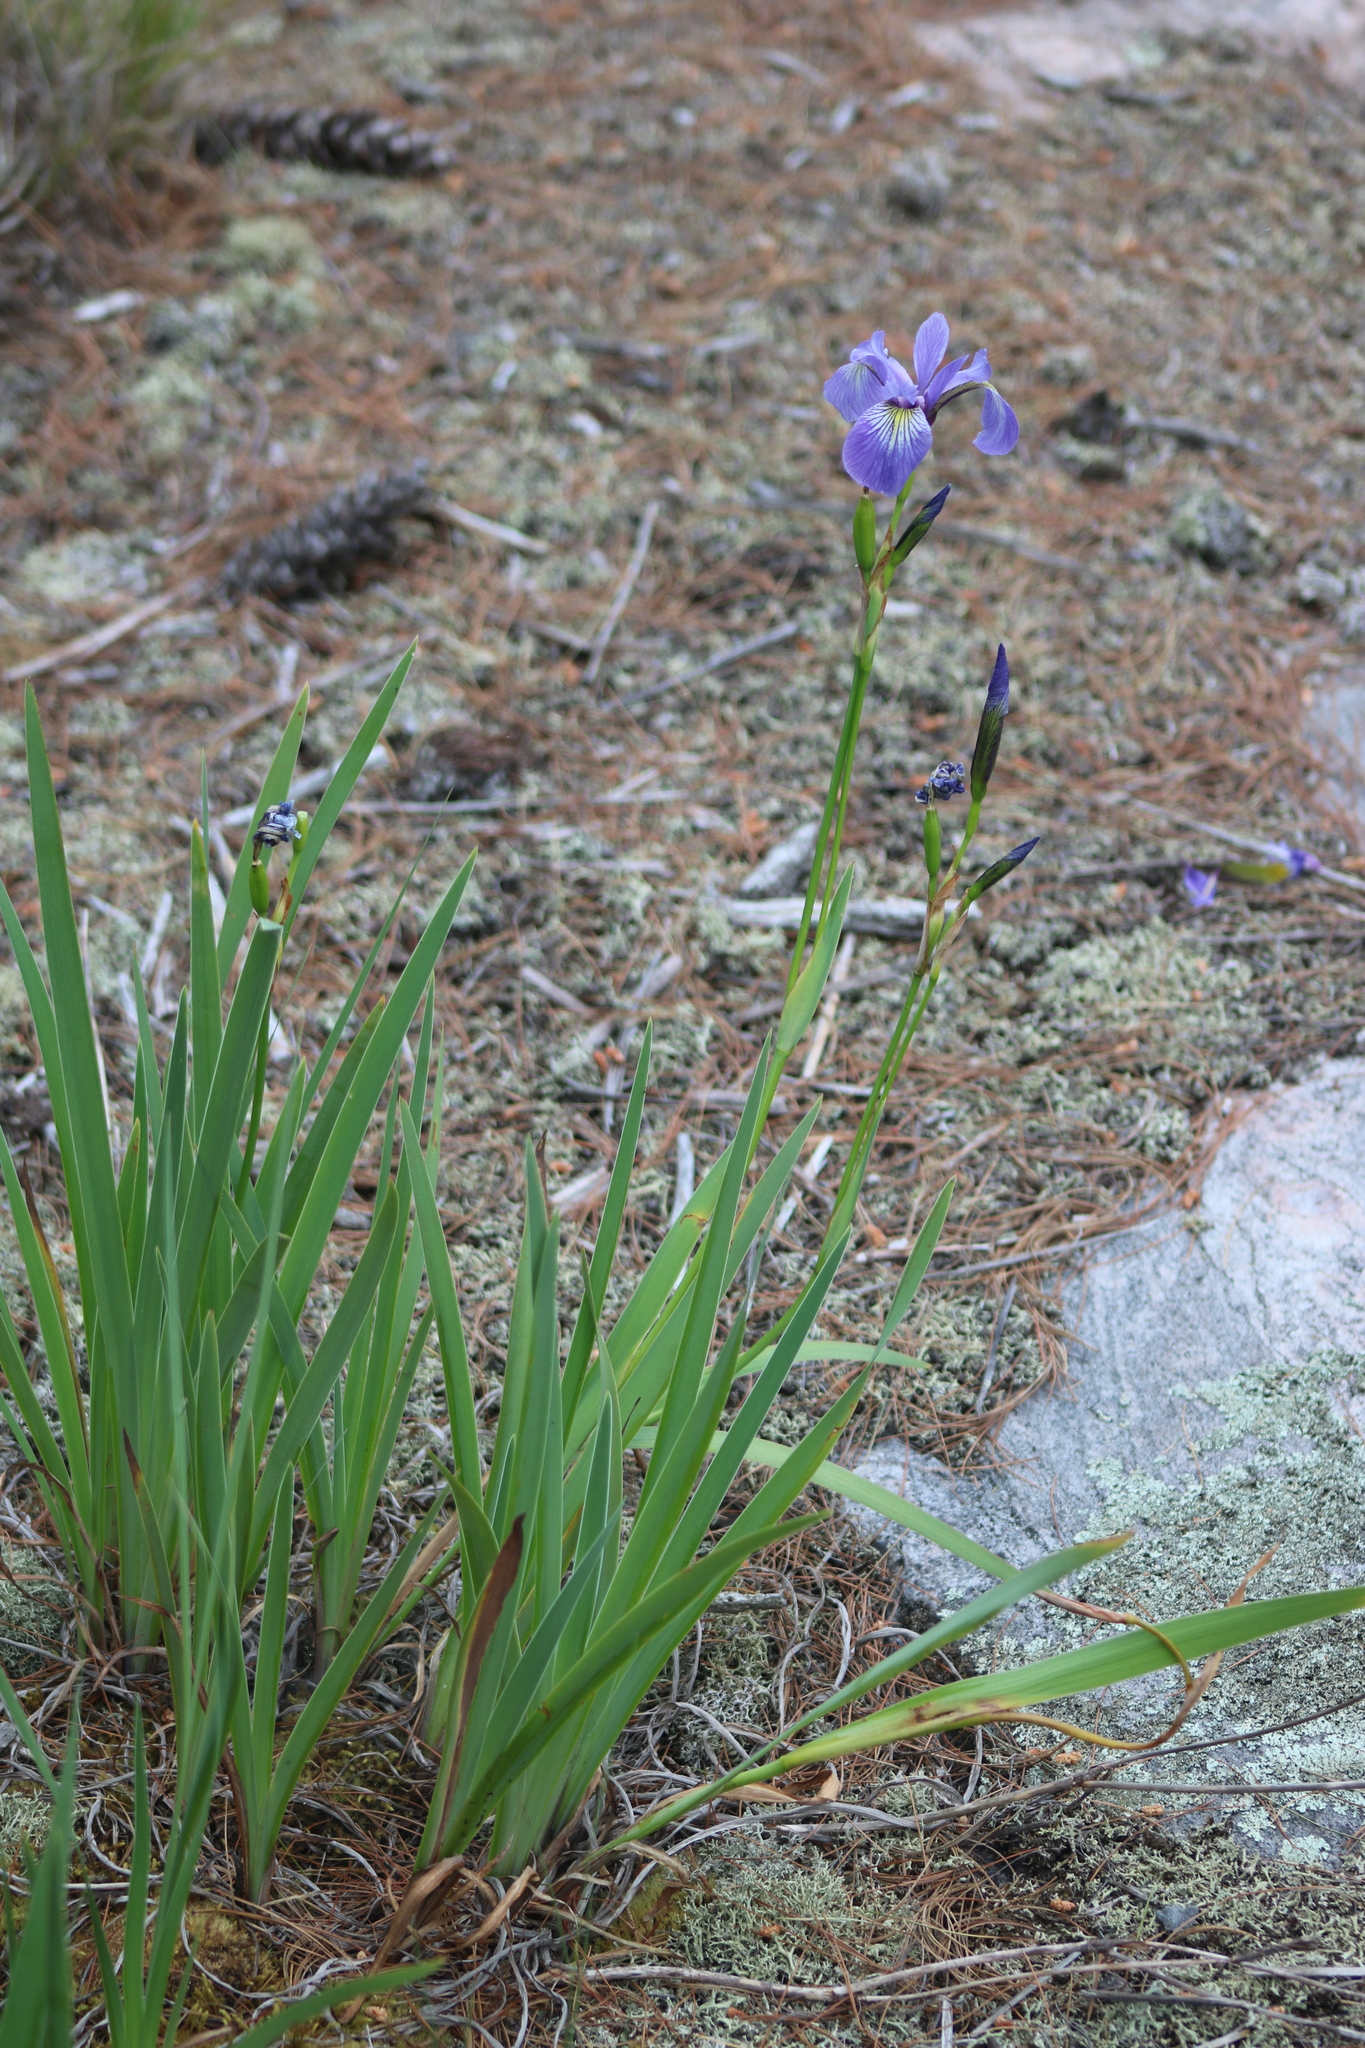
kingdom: Plantae
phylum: Tracheophyta
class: Liliopsida
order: Asparagales
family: Iridaceae
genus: Iris
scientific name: Iris versicolor
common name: Purple iris
